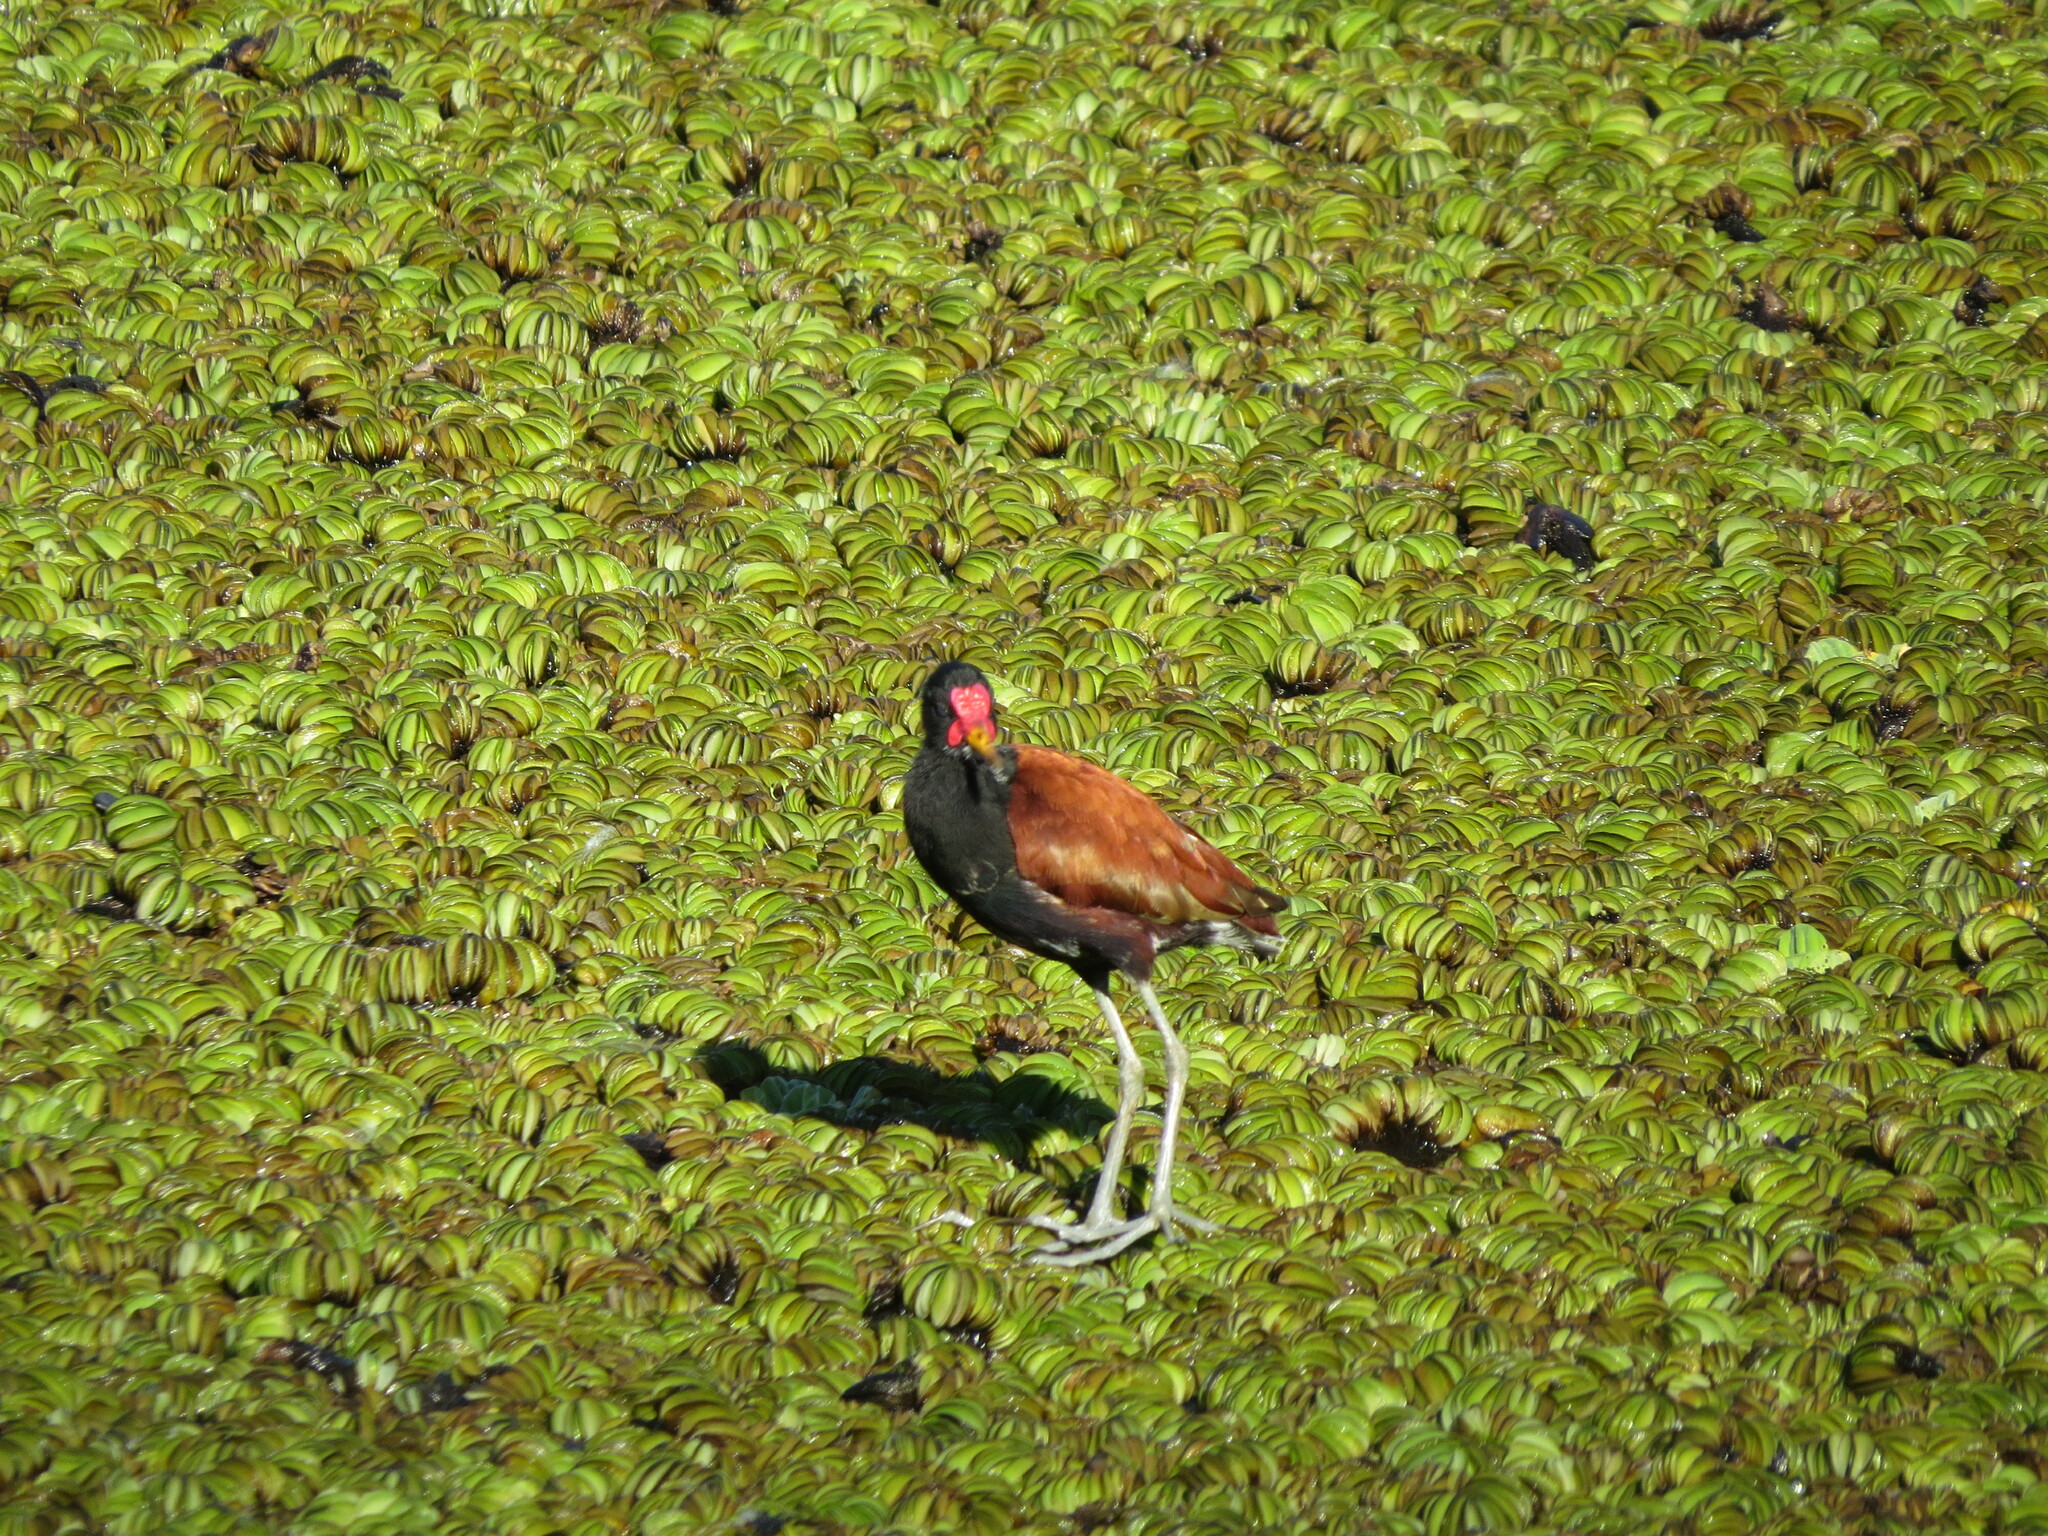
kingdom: Animalia
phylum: Chordata
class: Aves
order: Charadriiformes
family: Jacanidae
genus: Jacana
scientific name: Jacana jacana
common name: Wattled jacana
